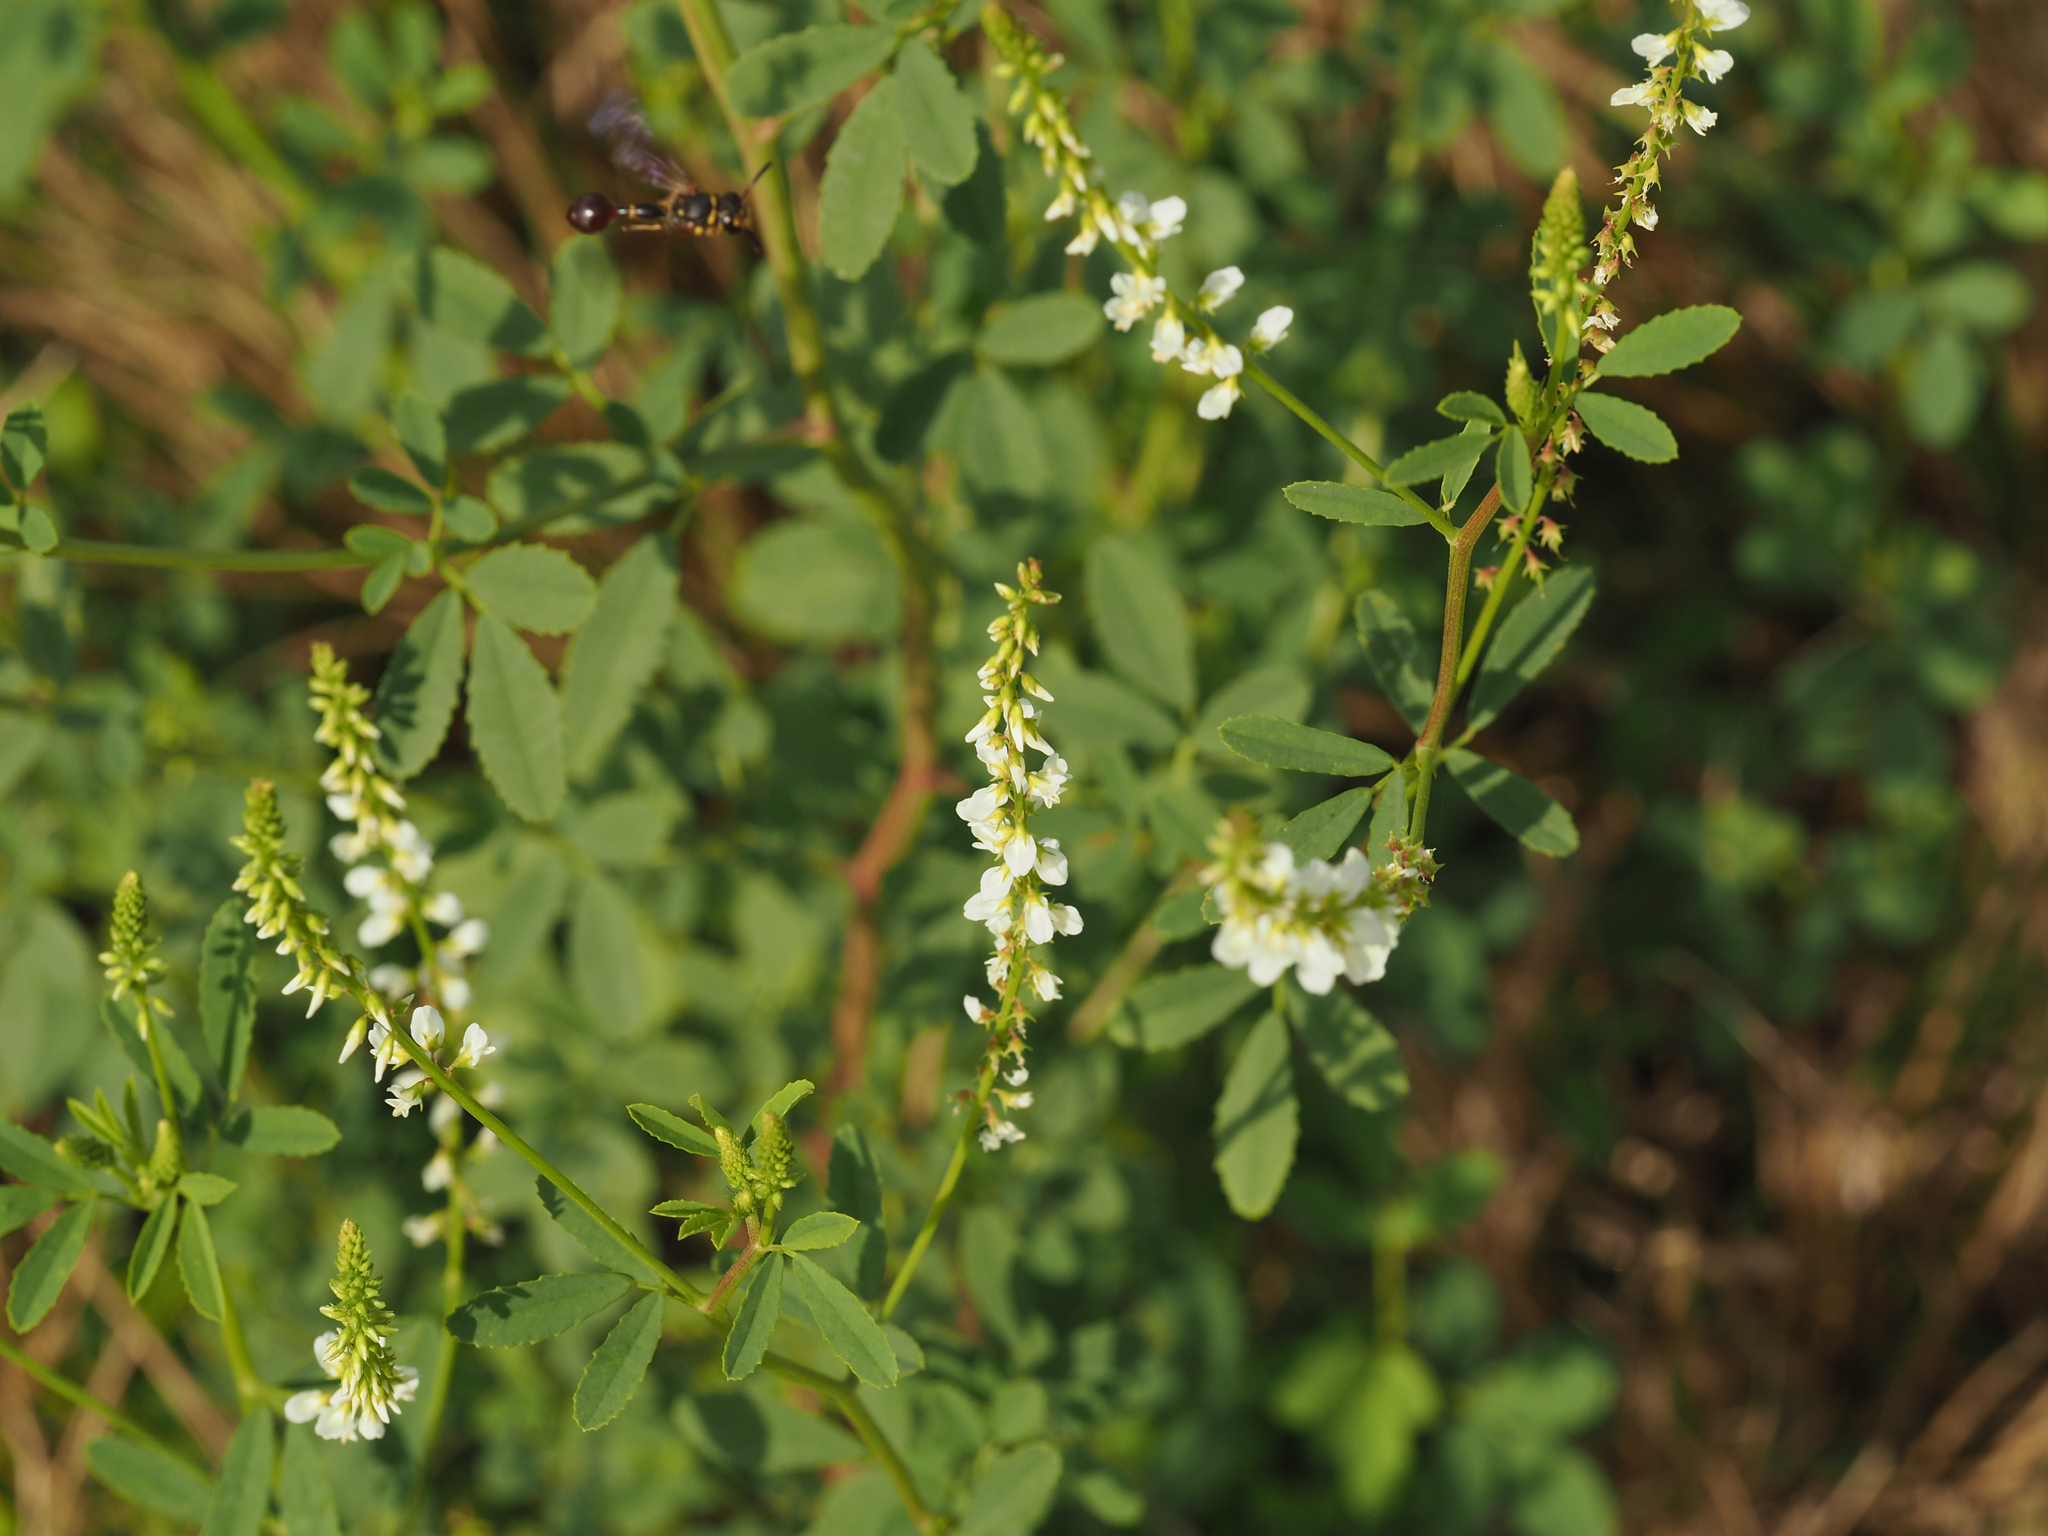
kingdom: Plantae
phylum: Tracheophyta
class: Magnoliopsida
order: Fabales
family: Fabaceae
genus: Melilotus
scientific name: Melilotus albus
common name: White melilot
